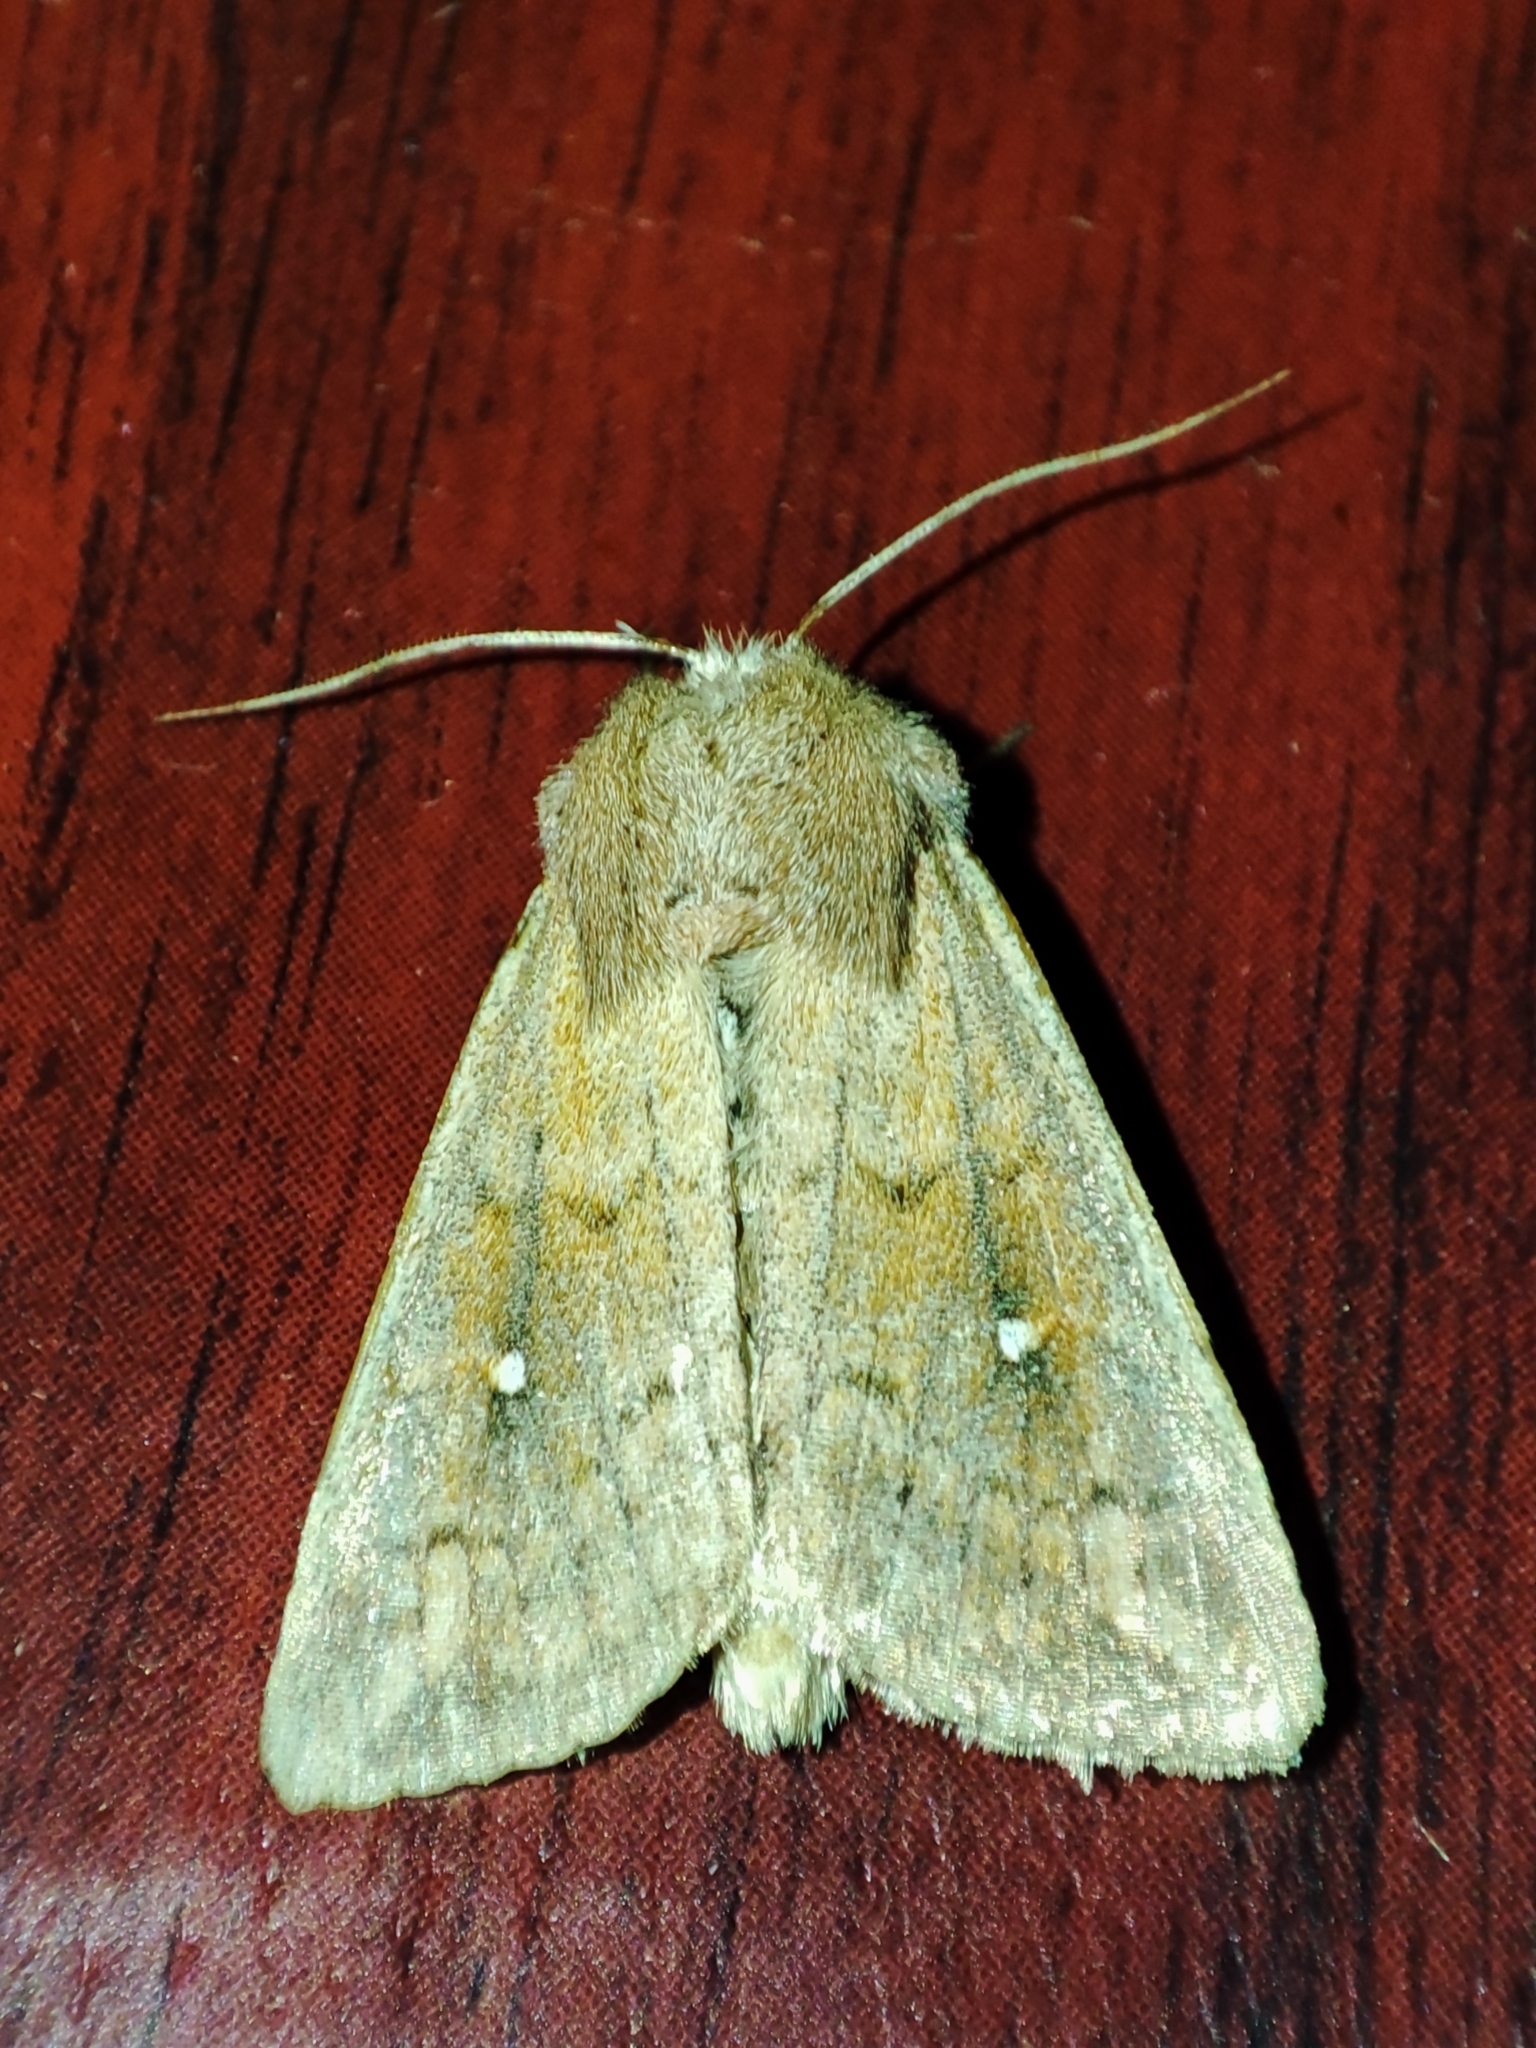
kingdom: Animalia
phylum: Arthropoda
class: Insecta
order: Lepidoptera
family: Noctuidae
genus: Mythimna
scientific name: Mythimna albipuncta
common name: White-point
